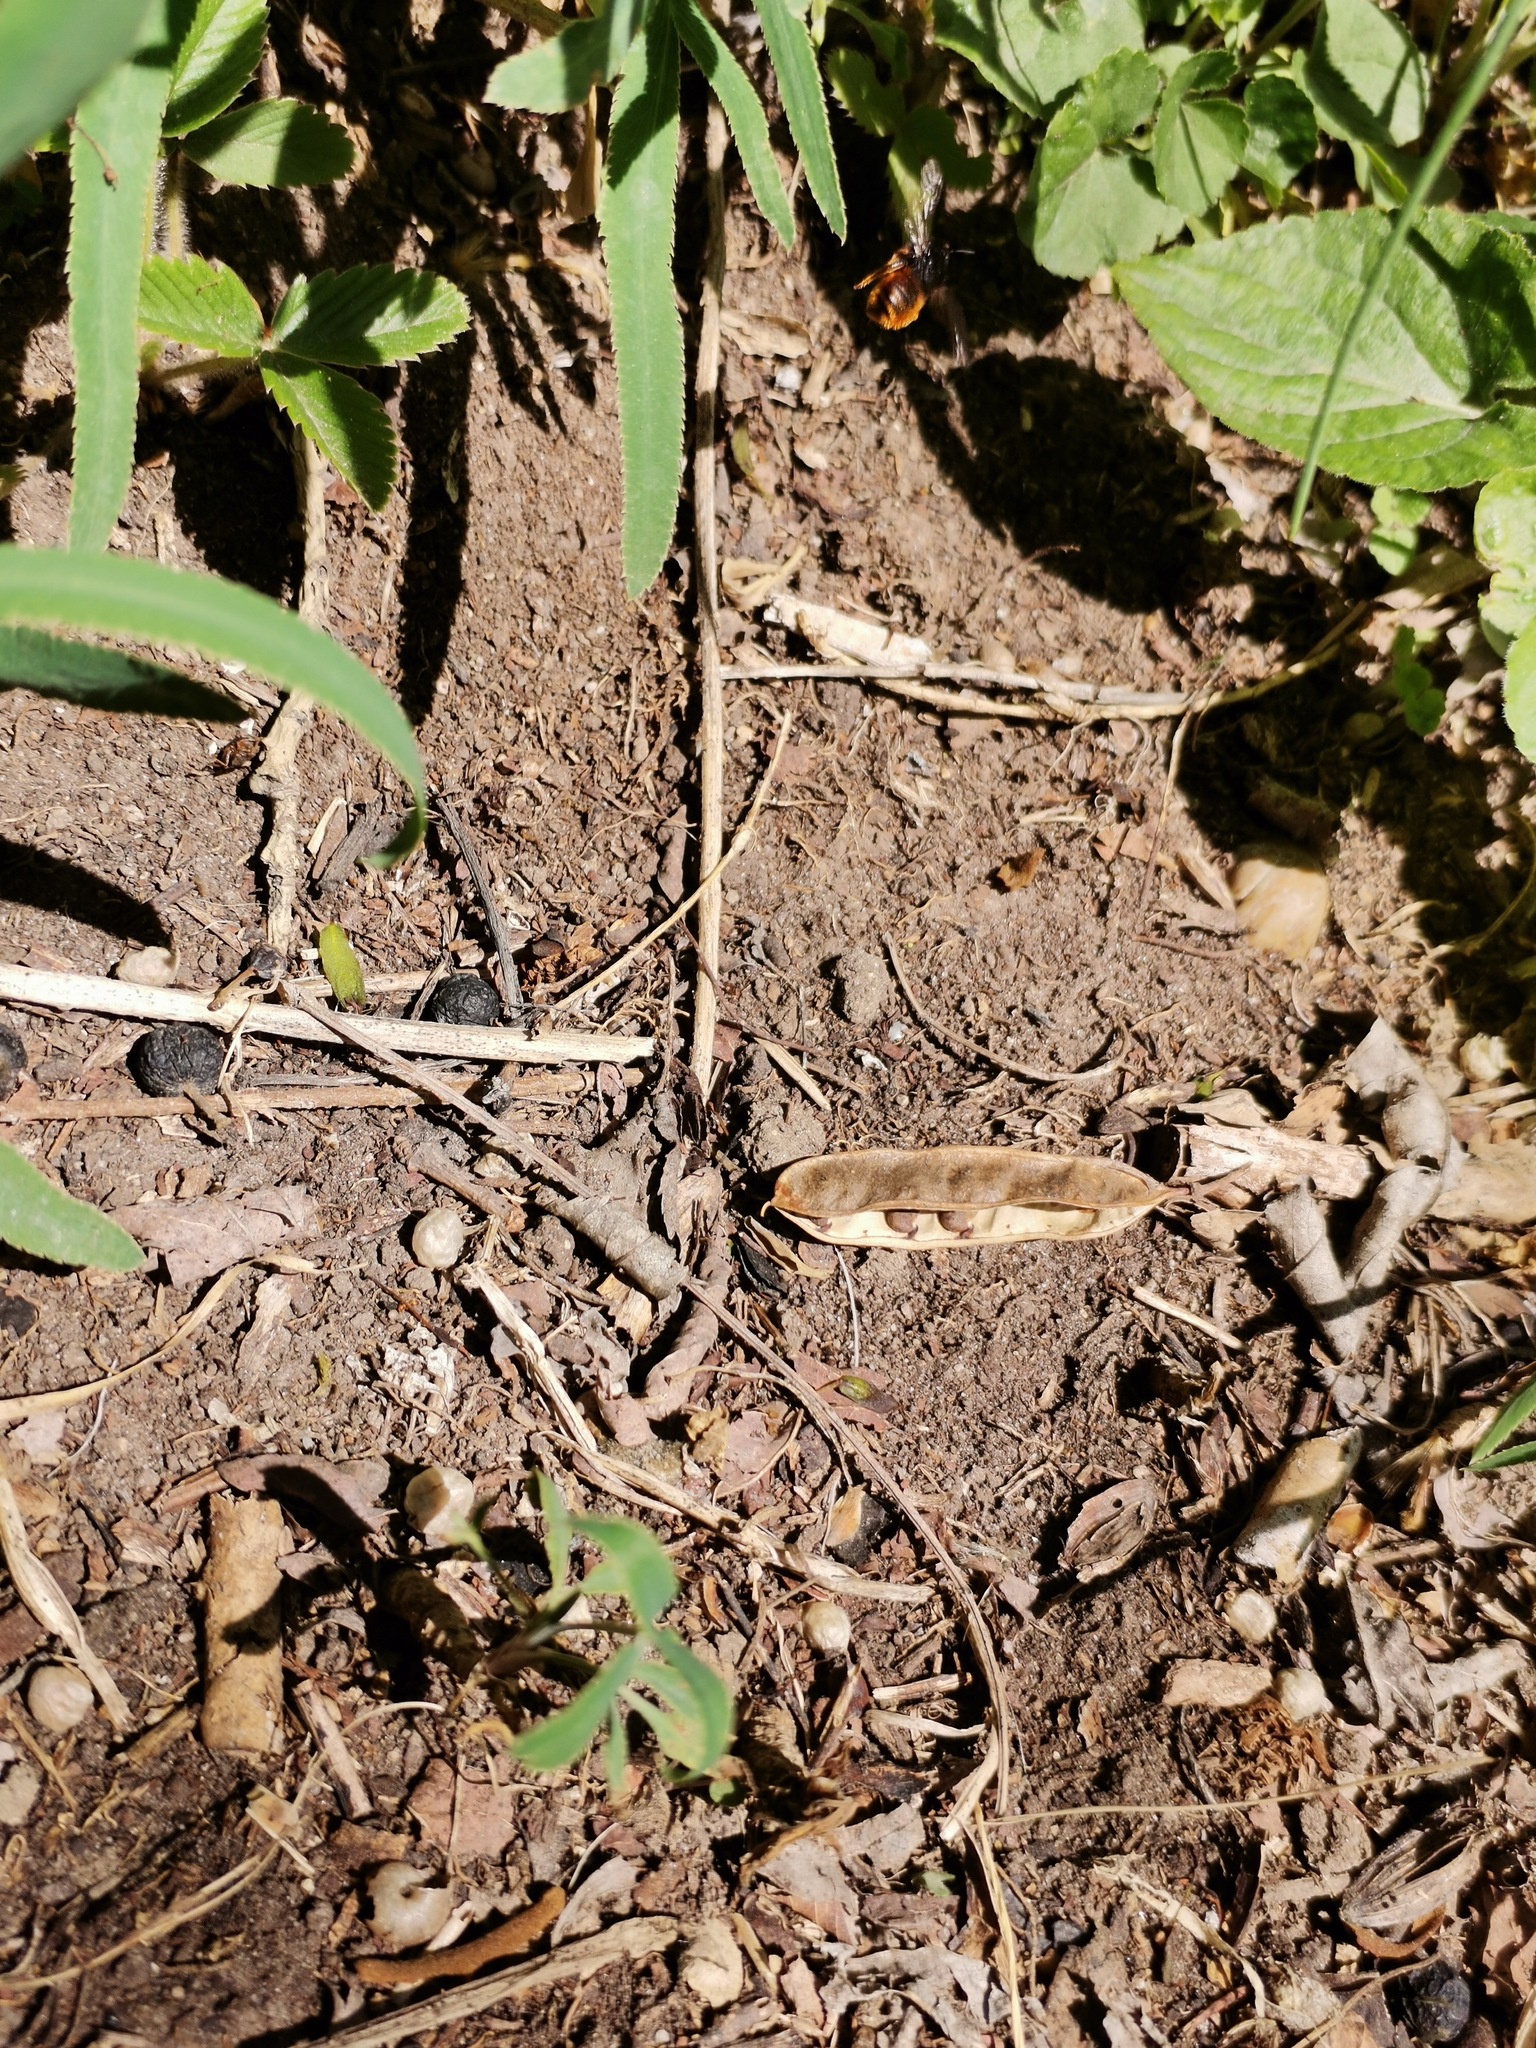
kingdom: Animalia
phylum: Arthropoda
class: Insecta
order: Hymenoptera
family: Megachilidae
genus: Osmia
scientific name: Osmia bicolor
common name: Red-tailed mason bee
